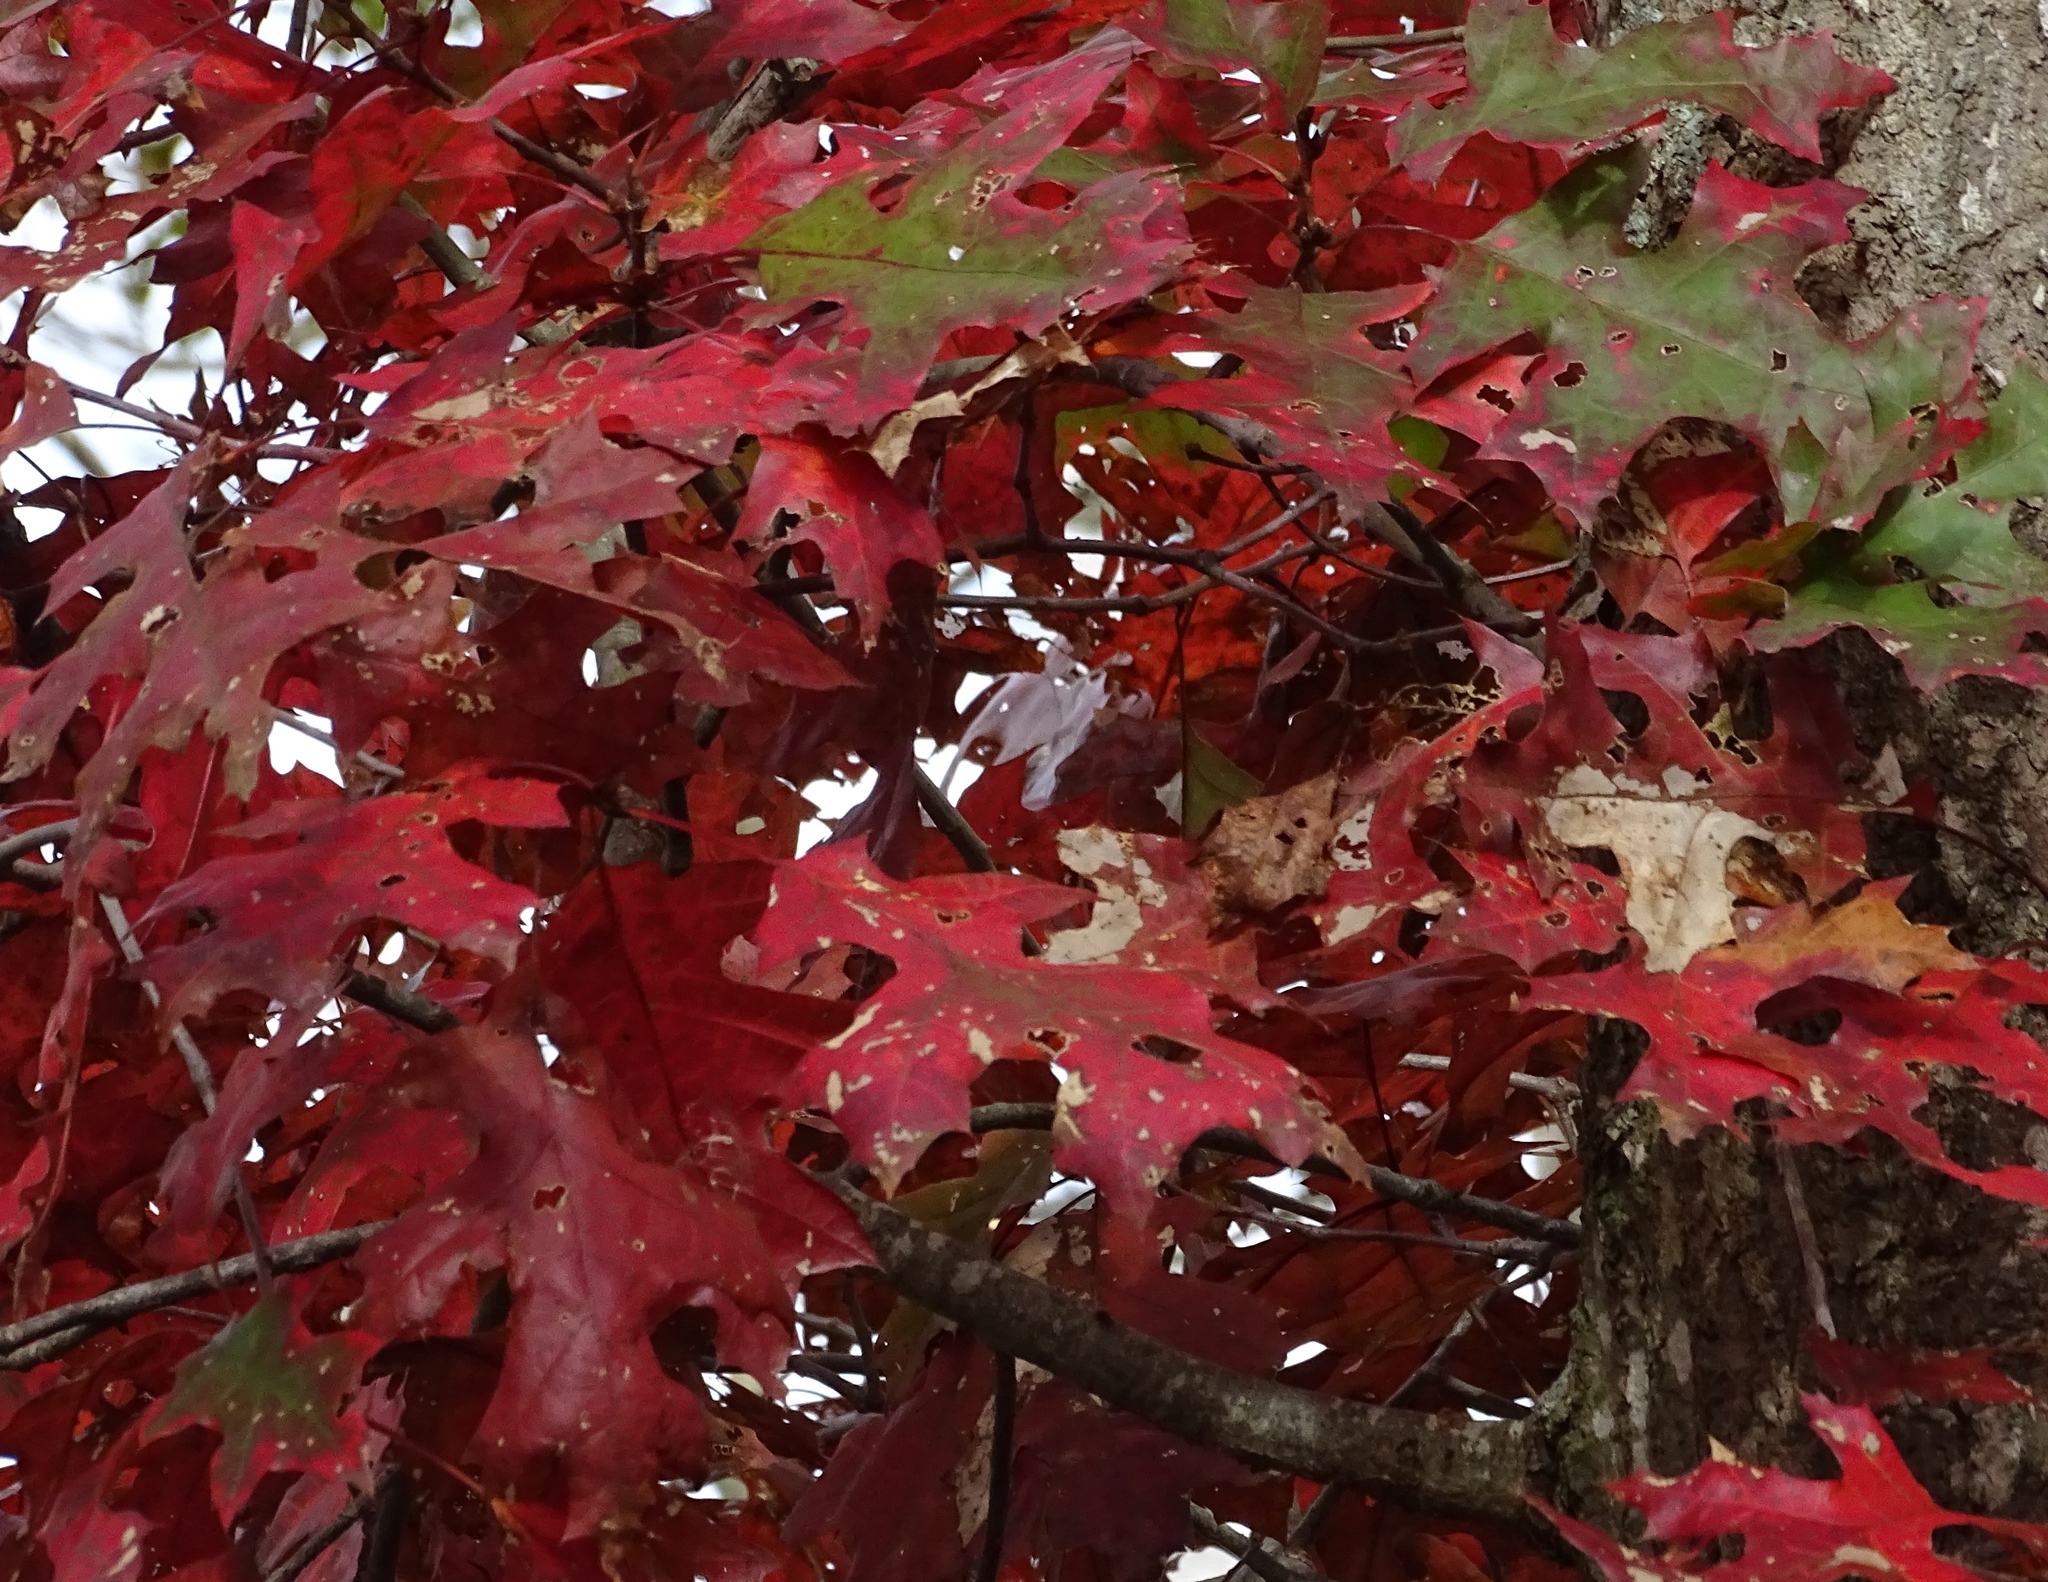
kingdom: Plantae
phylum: Tracheophyta
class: Magnoliopsida
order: Fagales
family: Fagaceae
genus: Quercus
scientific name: Quercus coccinea
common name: Scarlet oak
